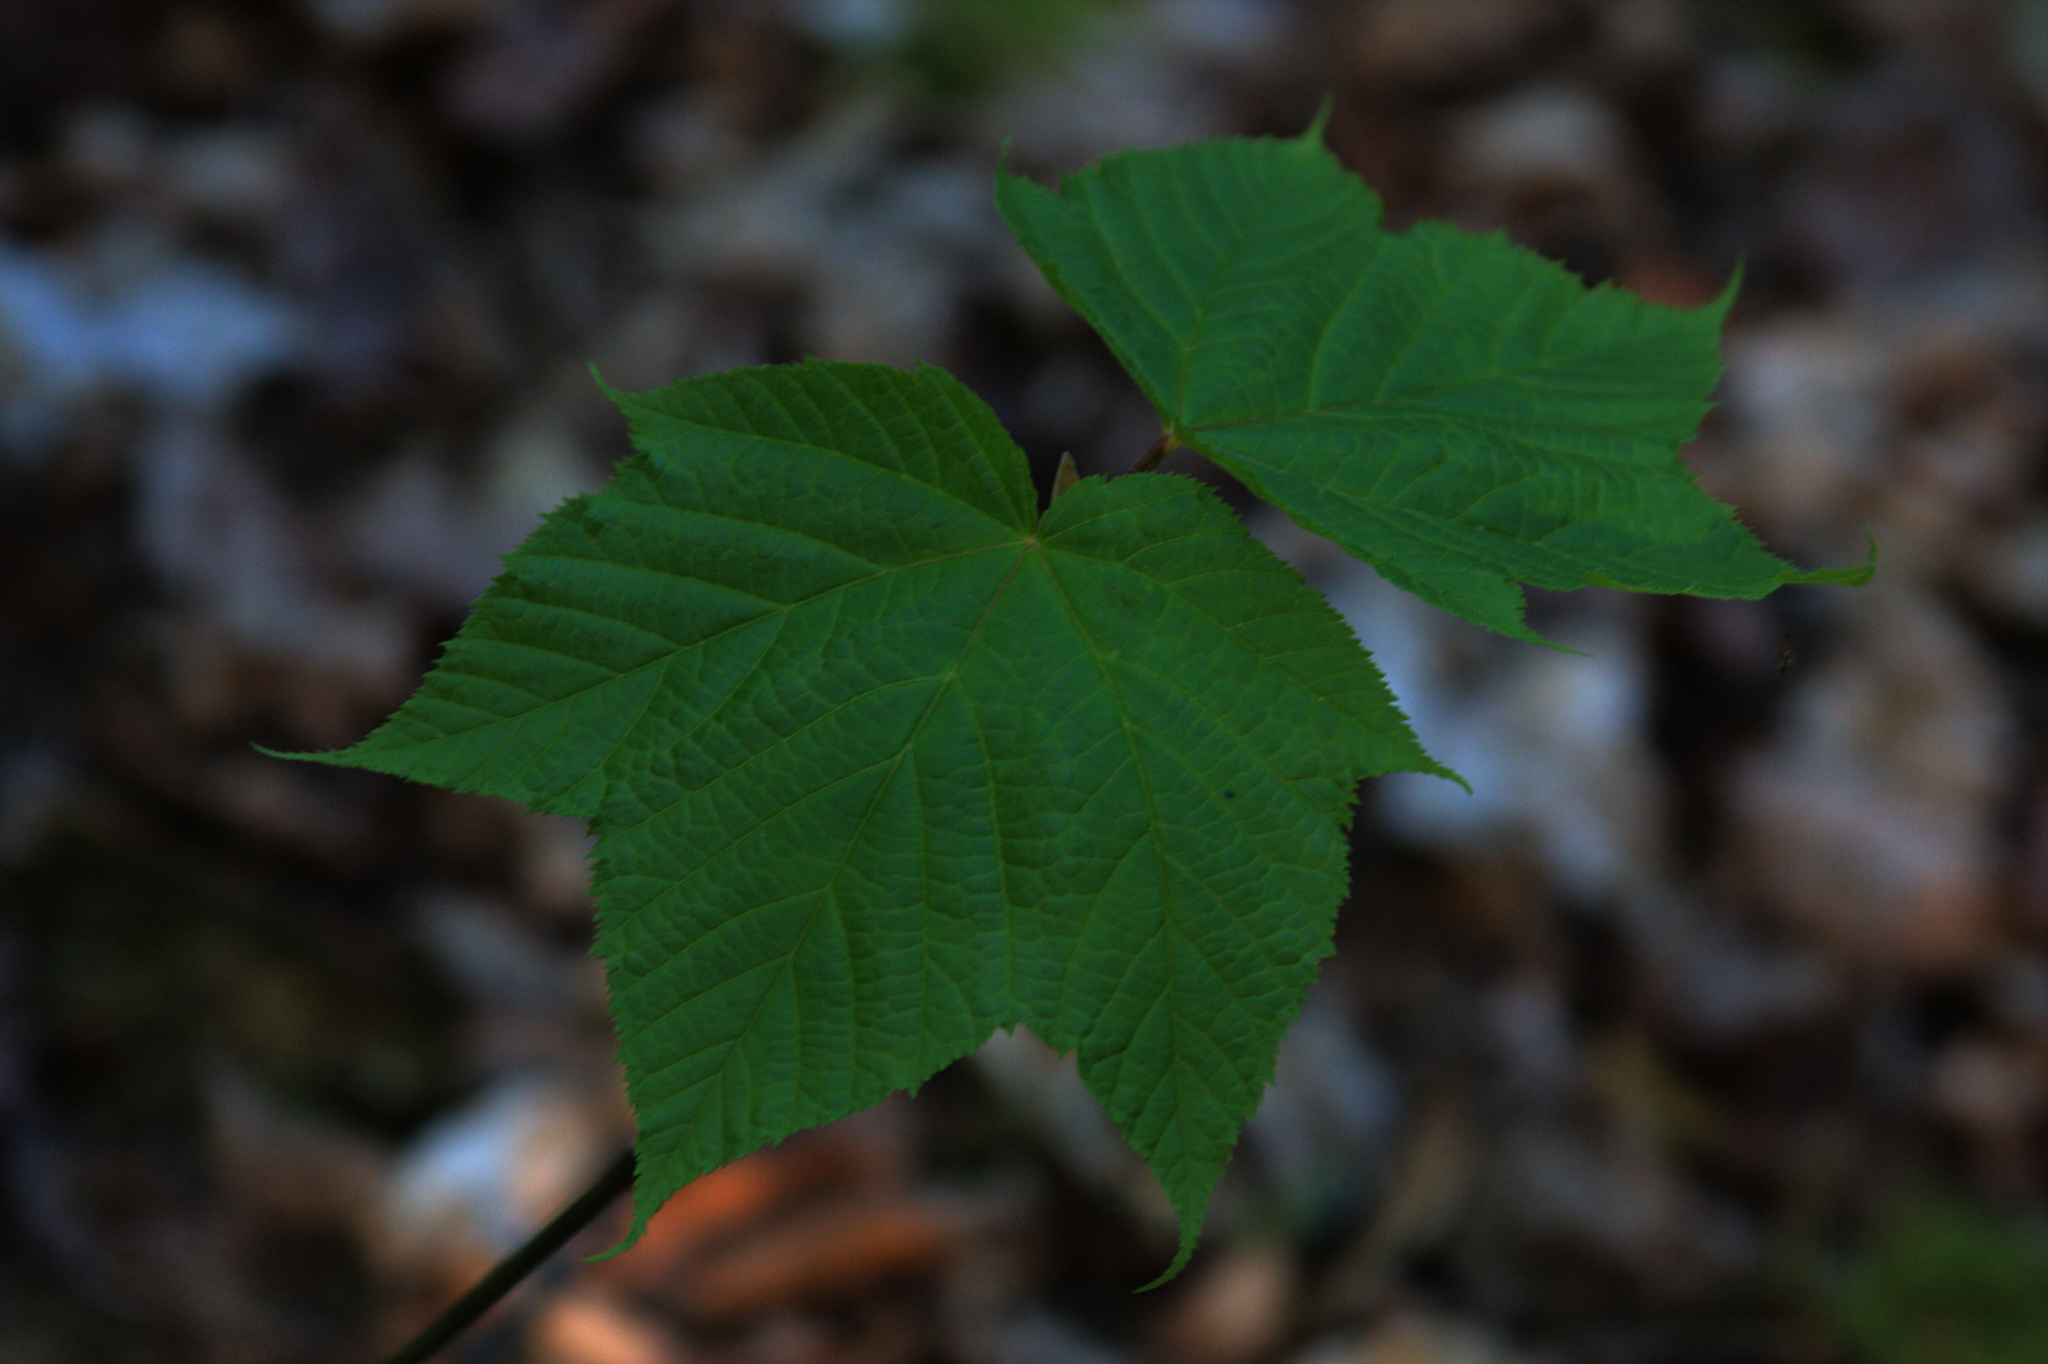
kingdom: Plantae
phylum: Tracheophyta
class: Magnoliopsida
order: Sapindales
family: Sapindaceae
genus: Acer
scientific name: Acer pensylvanicum
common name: Moosewood
